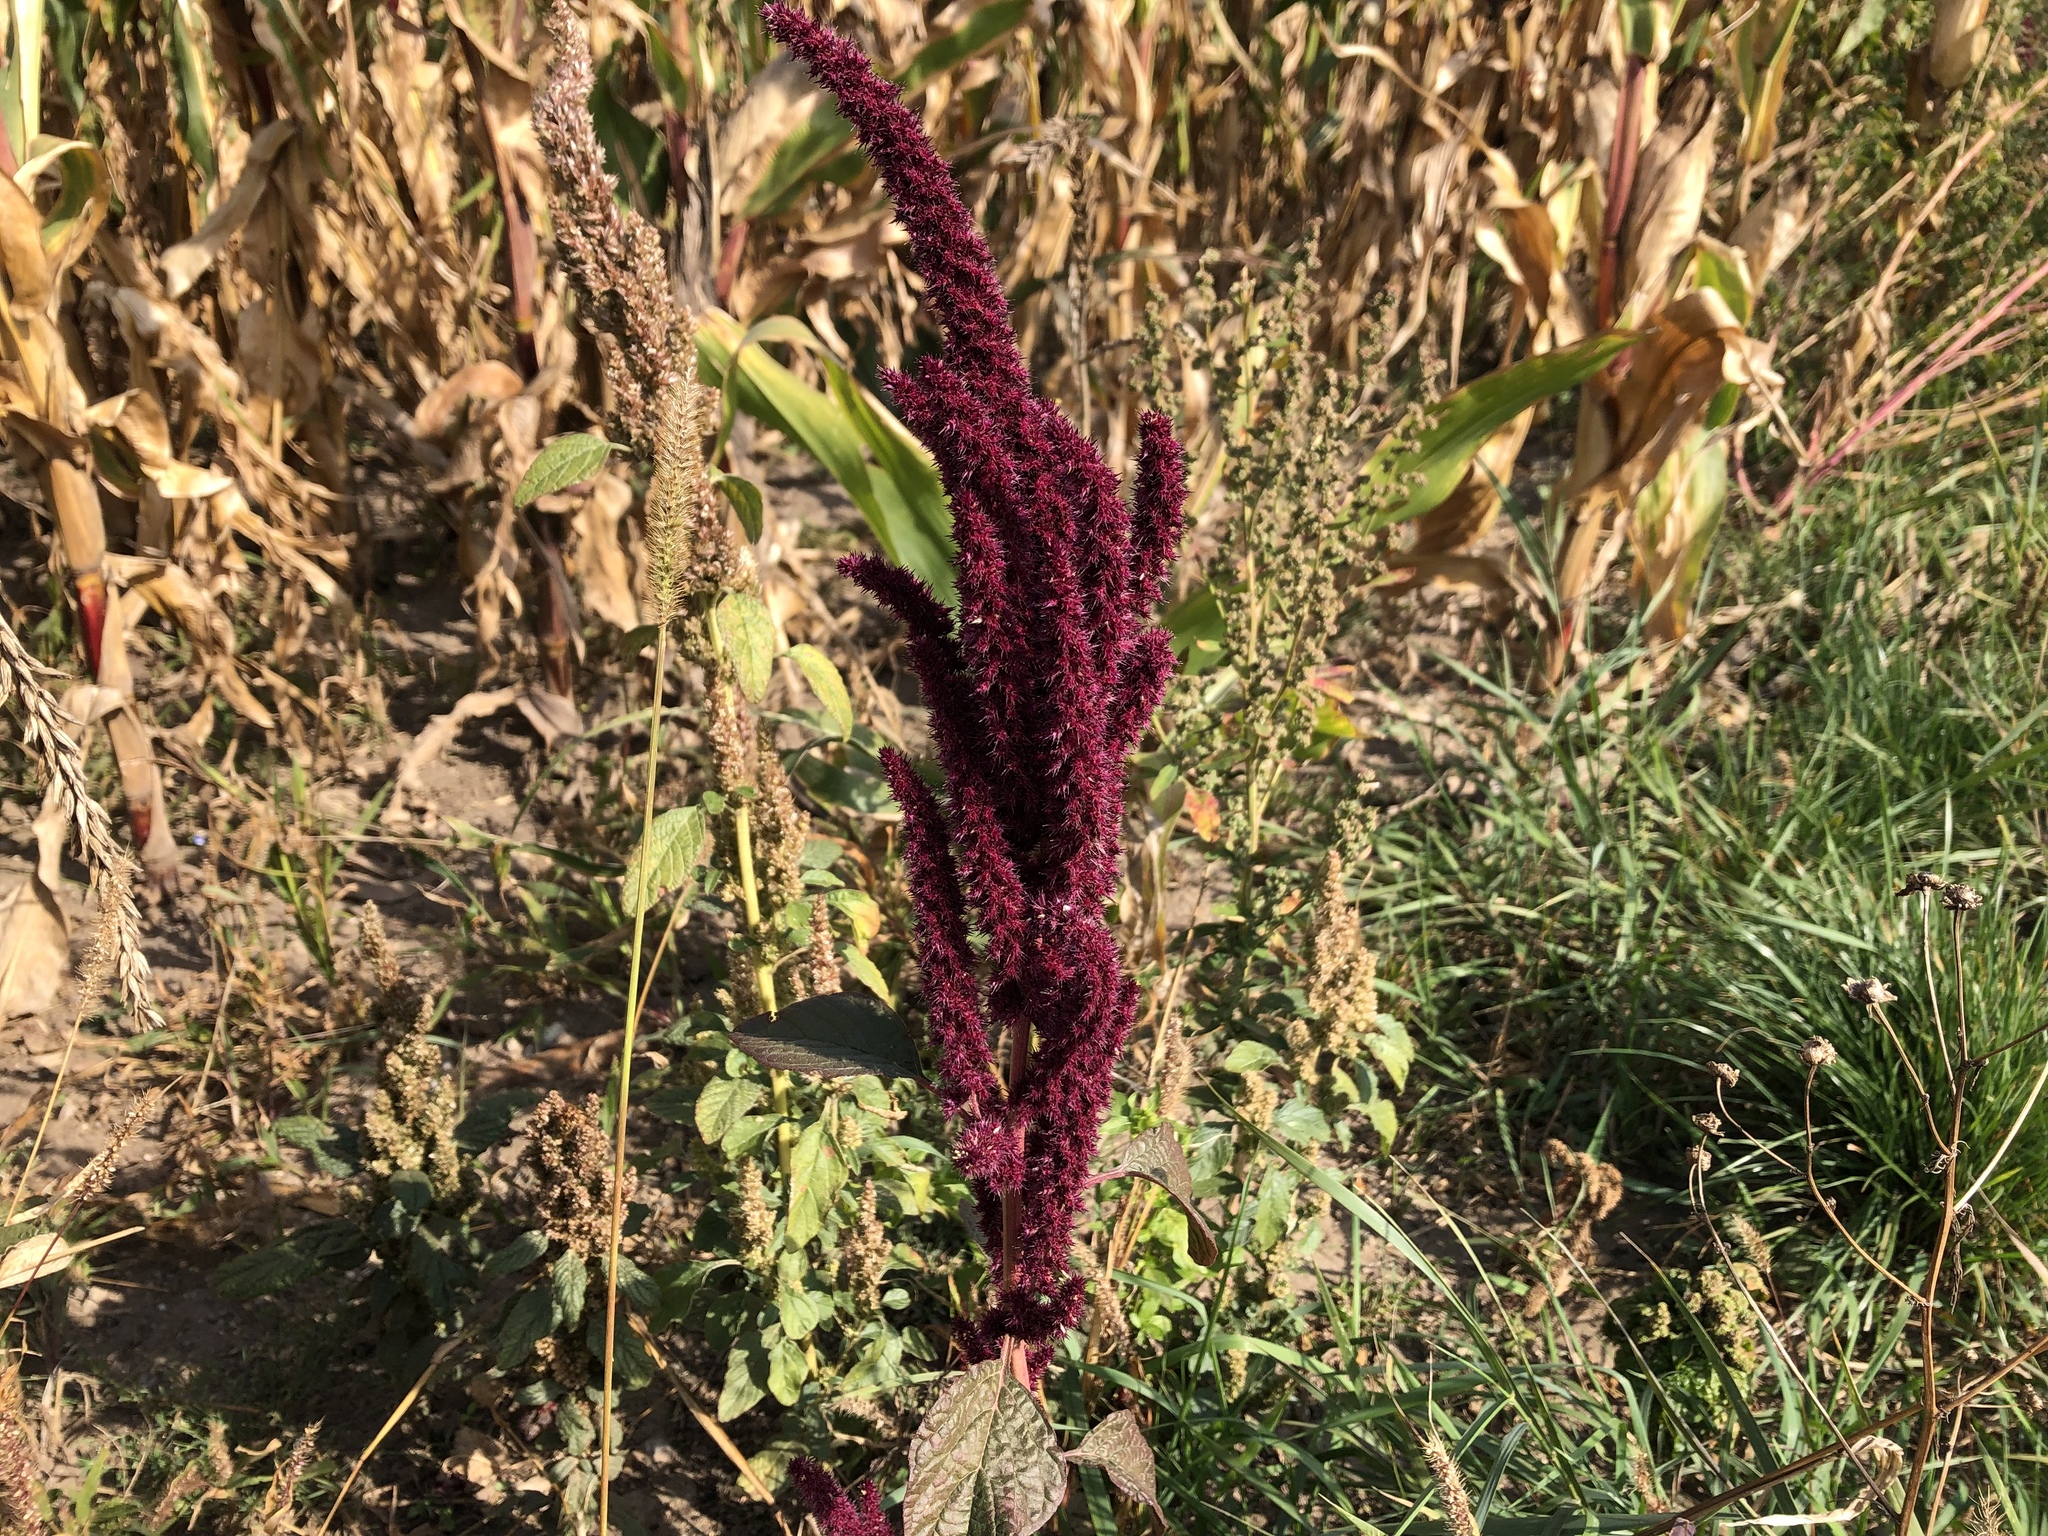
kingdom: Plantae
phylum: Tracheophyta
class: Magnoliopsida
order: Caryophyllales
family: Amaranthaceae
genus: Amaranthus
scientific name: Amaranthus cruentus
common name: Purple amaranth
